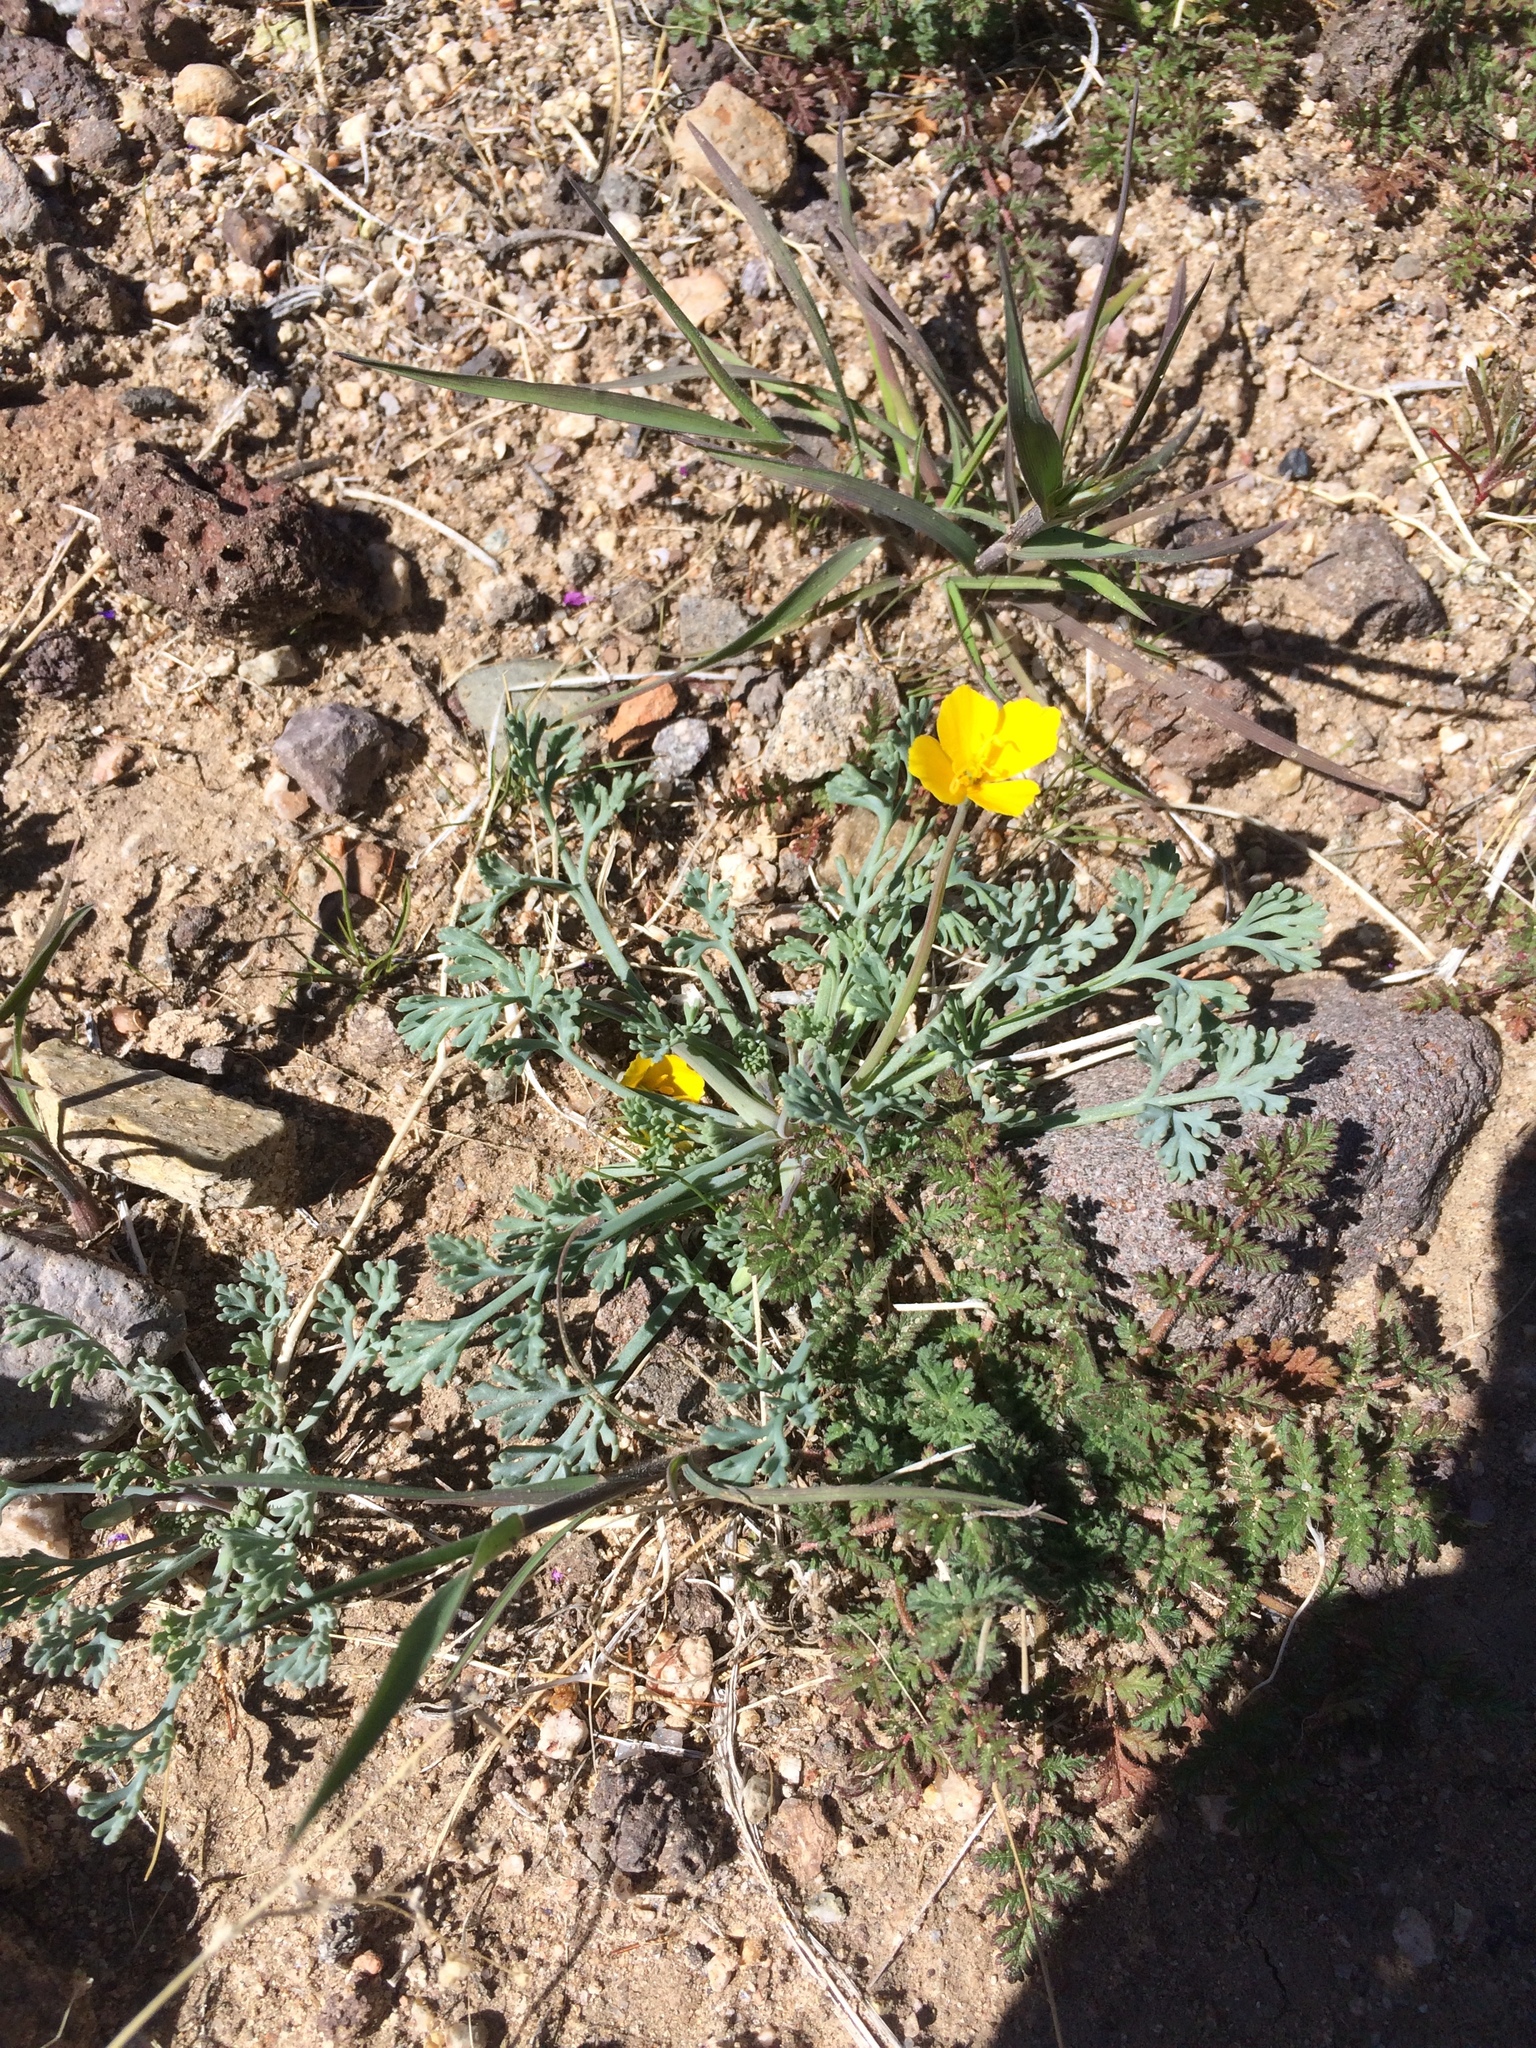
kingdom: Plantae
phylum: Tracheophyta
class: Magnoliopsida
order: Ranunculales
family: Papaveraceae
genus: Eschscholzia
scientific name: Eschscholzia minutiflora
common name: Small-flower california-poppy
